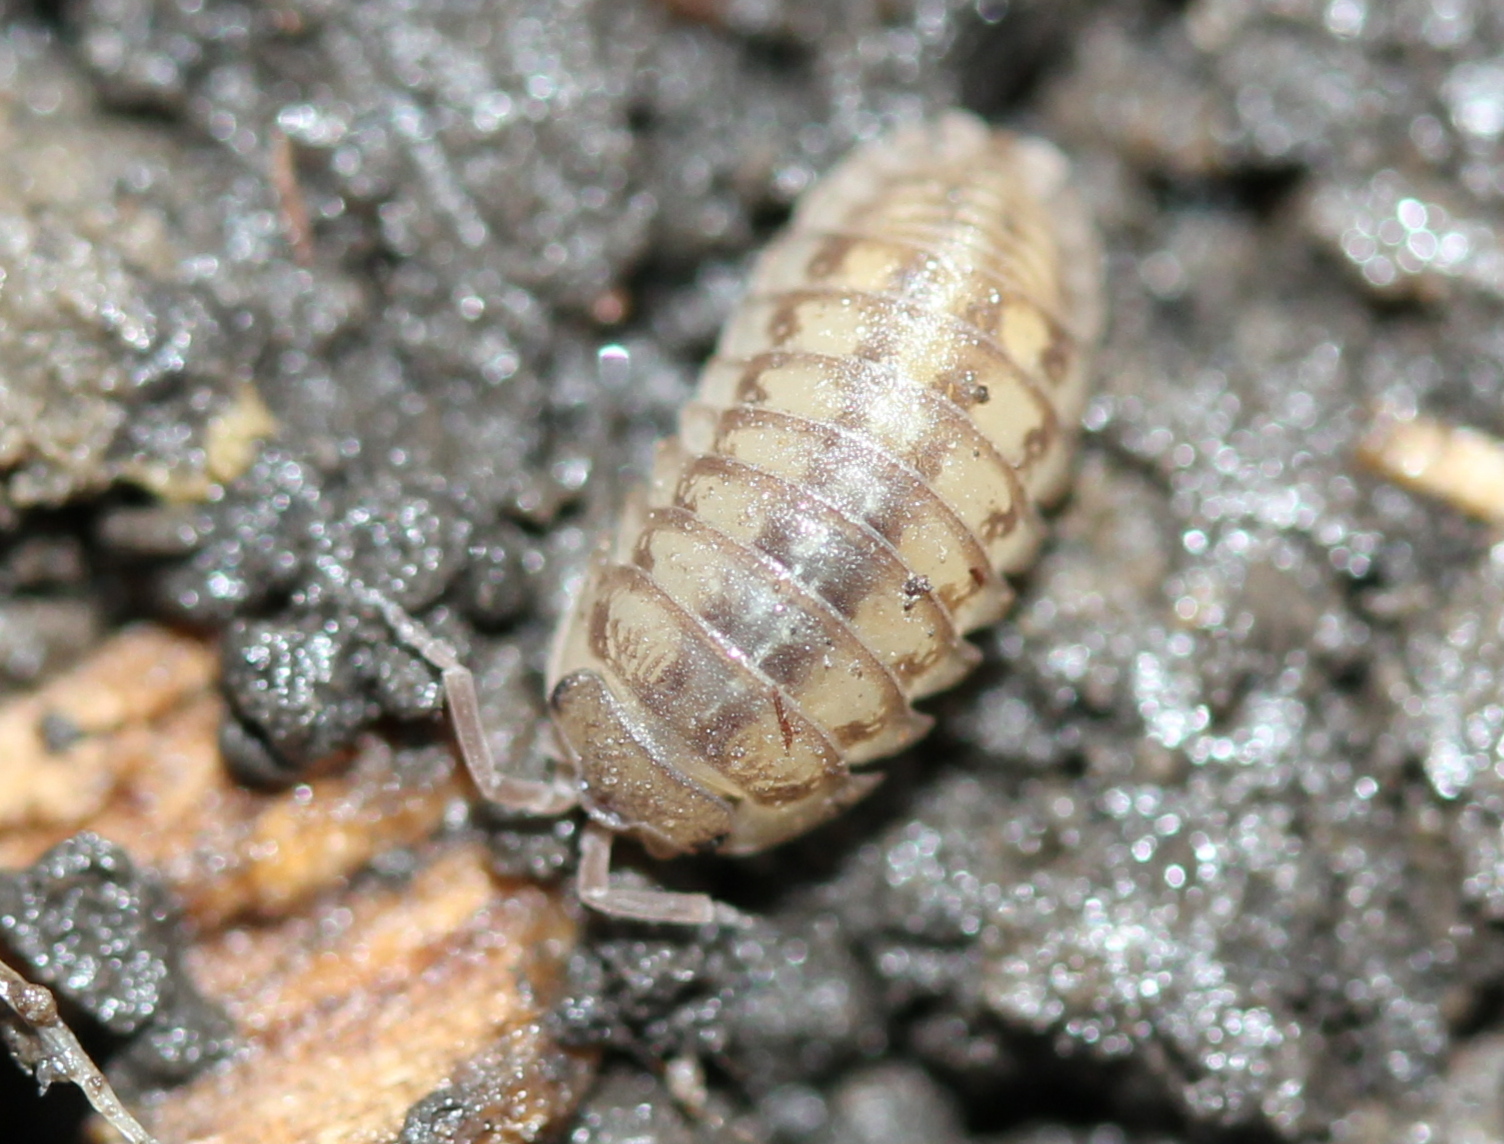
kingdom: Animalia
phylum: Arthropoda
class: Malacostraca
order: Isopoda
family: Armadillidiidae
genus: Armadillidium
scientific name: Armadillidium nasatum
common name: Isopod
